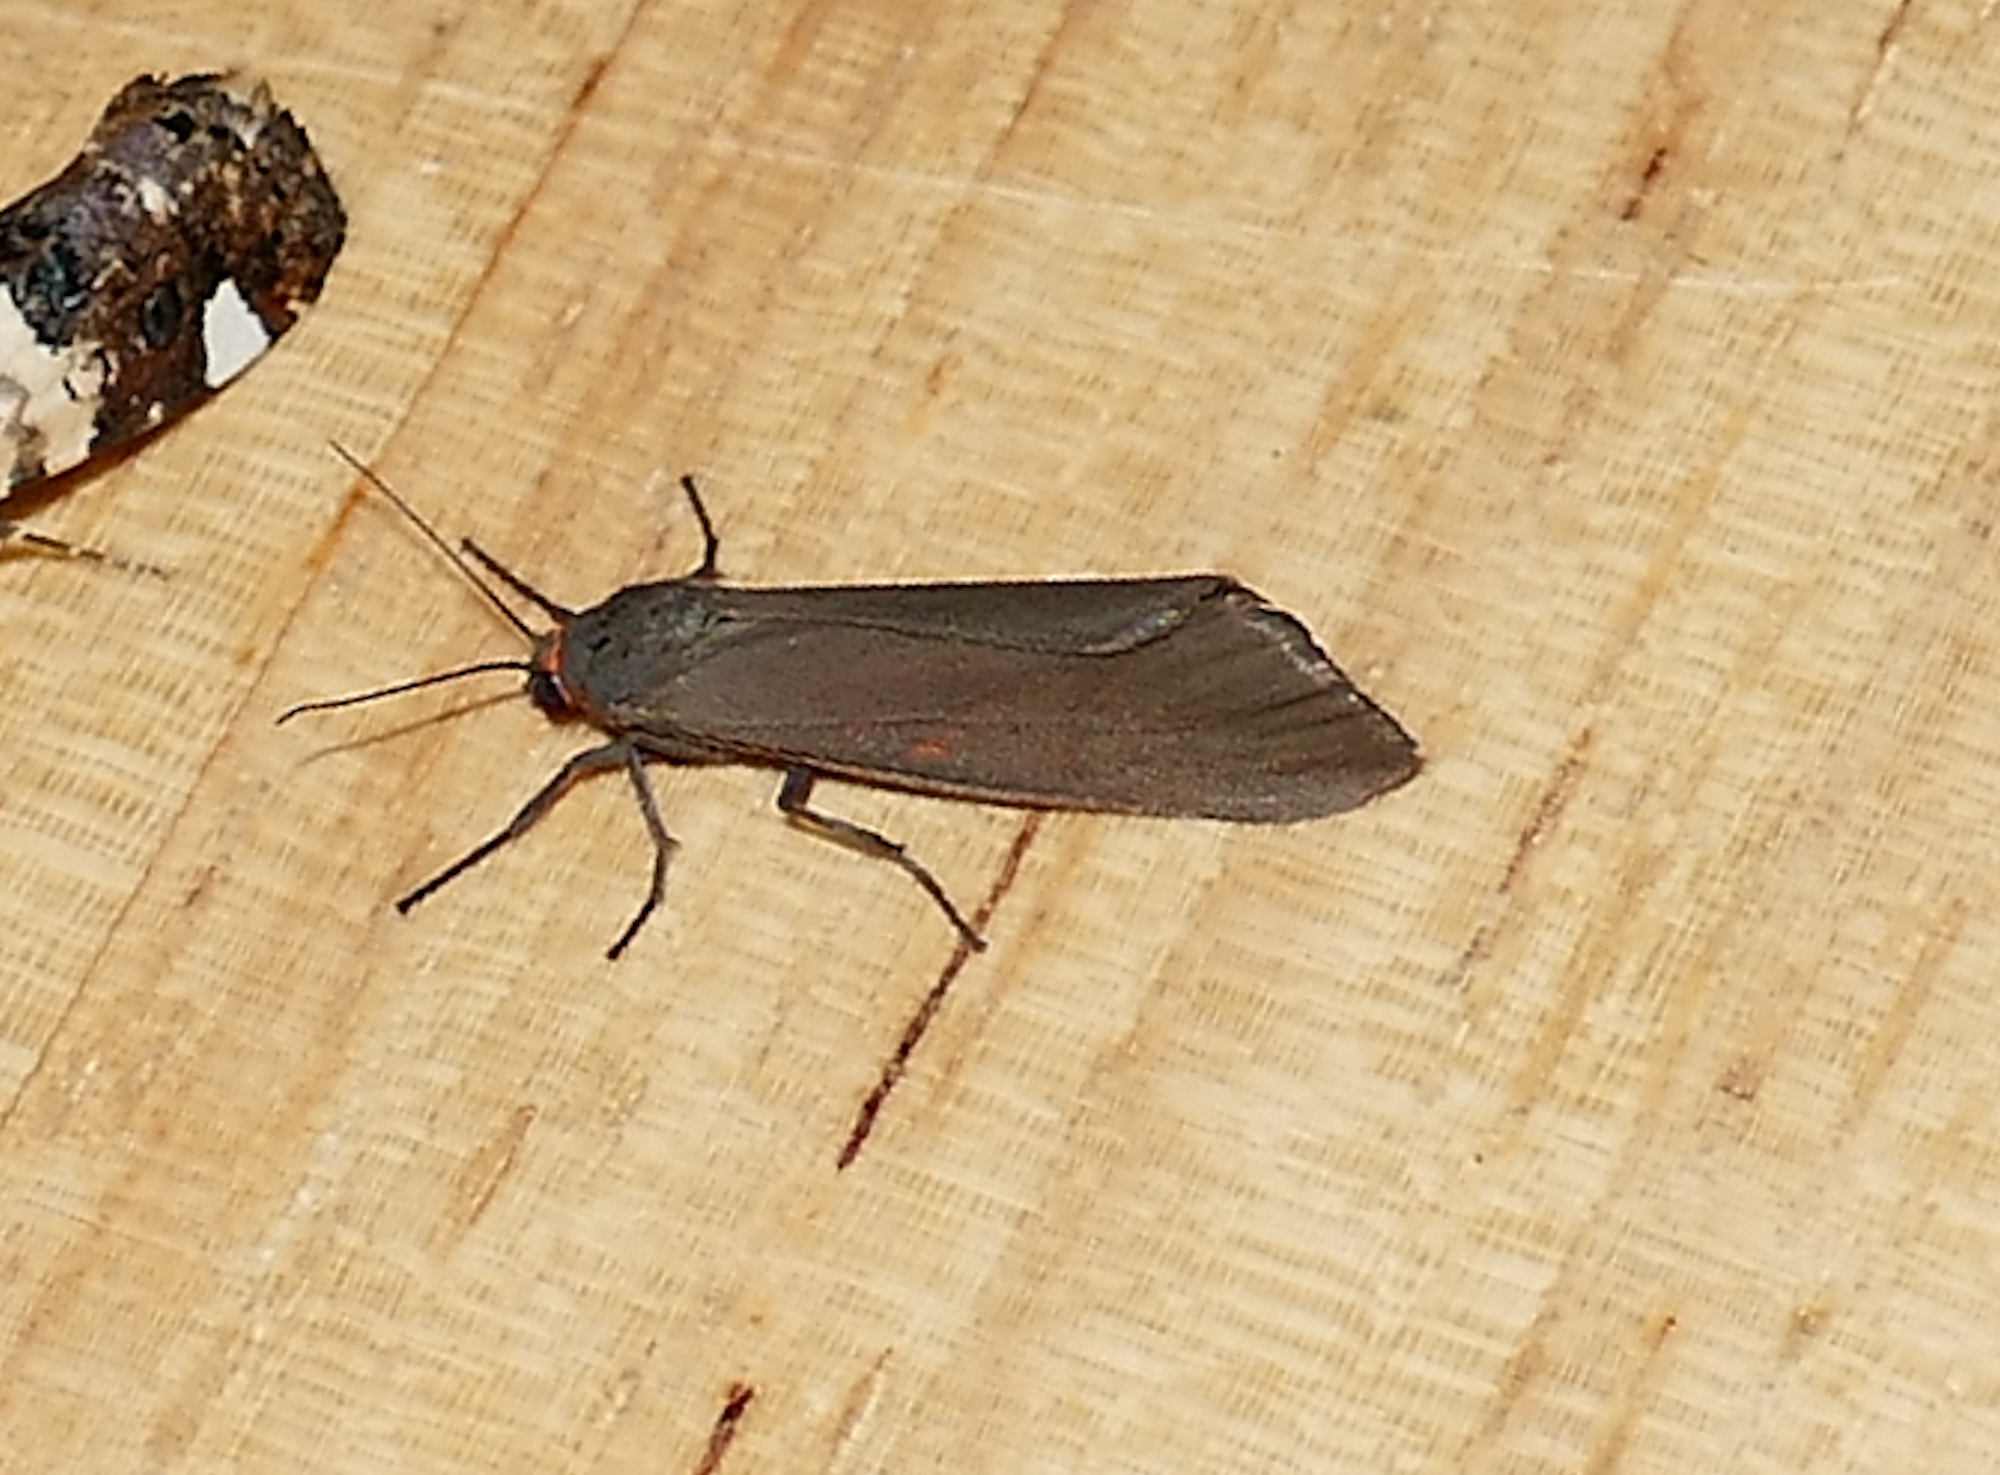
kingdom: Animalia
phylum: Arthropoda
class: Insecta
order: Lepidoptera
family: Erebidae
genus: Virbia
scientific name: Virbia costata
